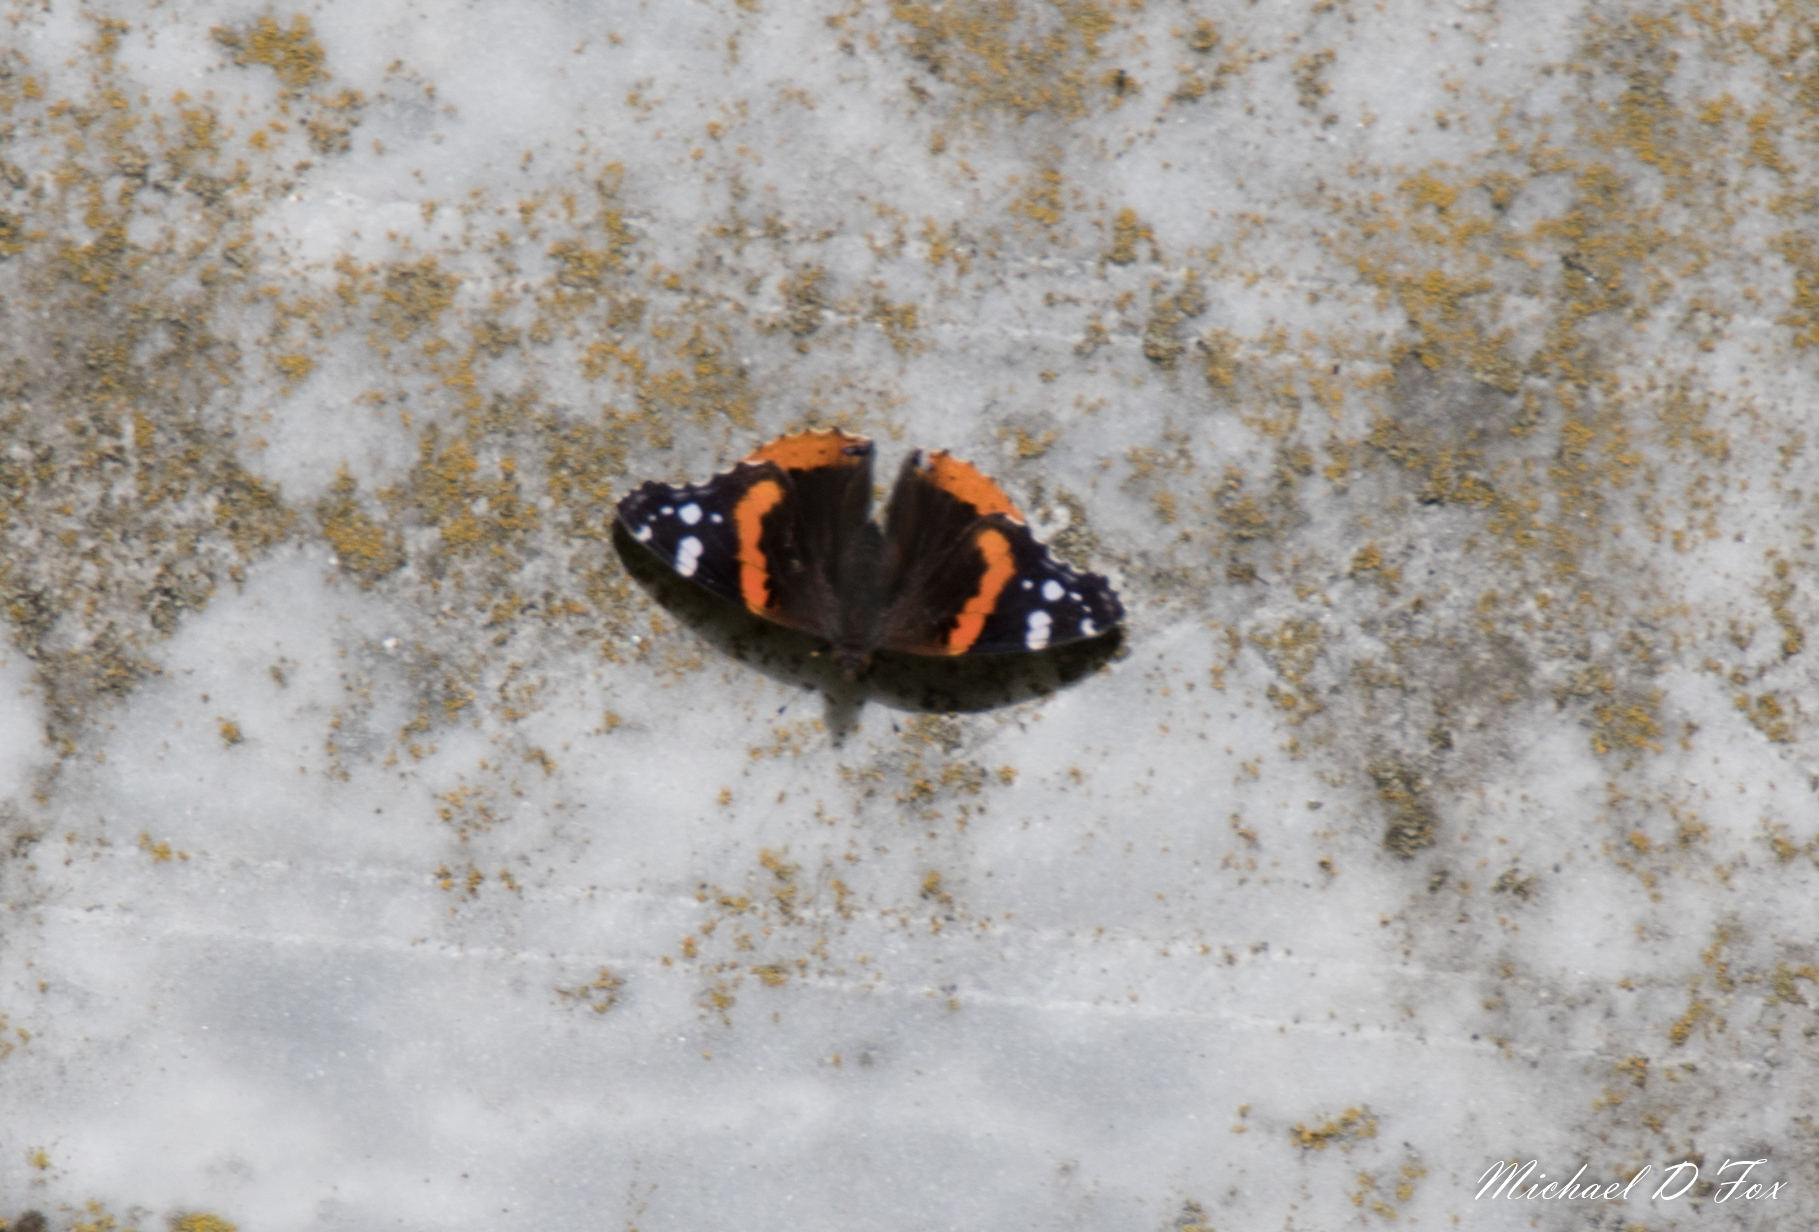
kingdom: Animalia
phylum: Arthropoda
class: Insecta
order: Lepidoptera
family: Nymphalidae
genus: Vanessa
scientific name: Vanessa atalanta
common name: Red admiral
